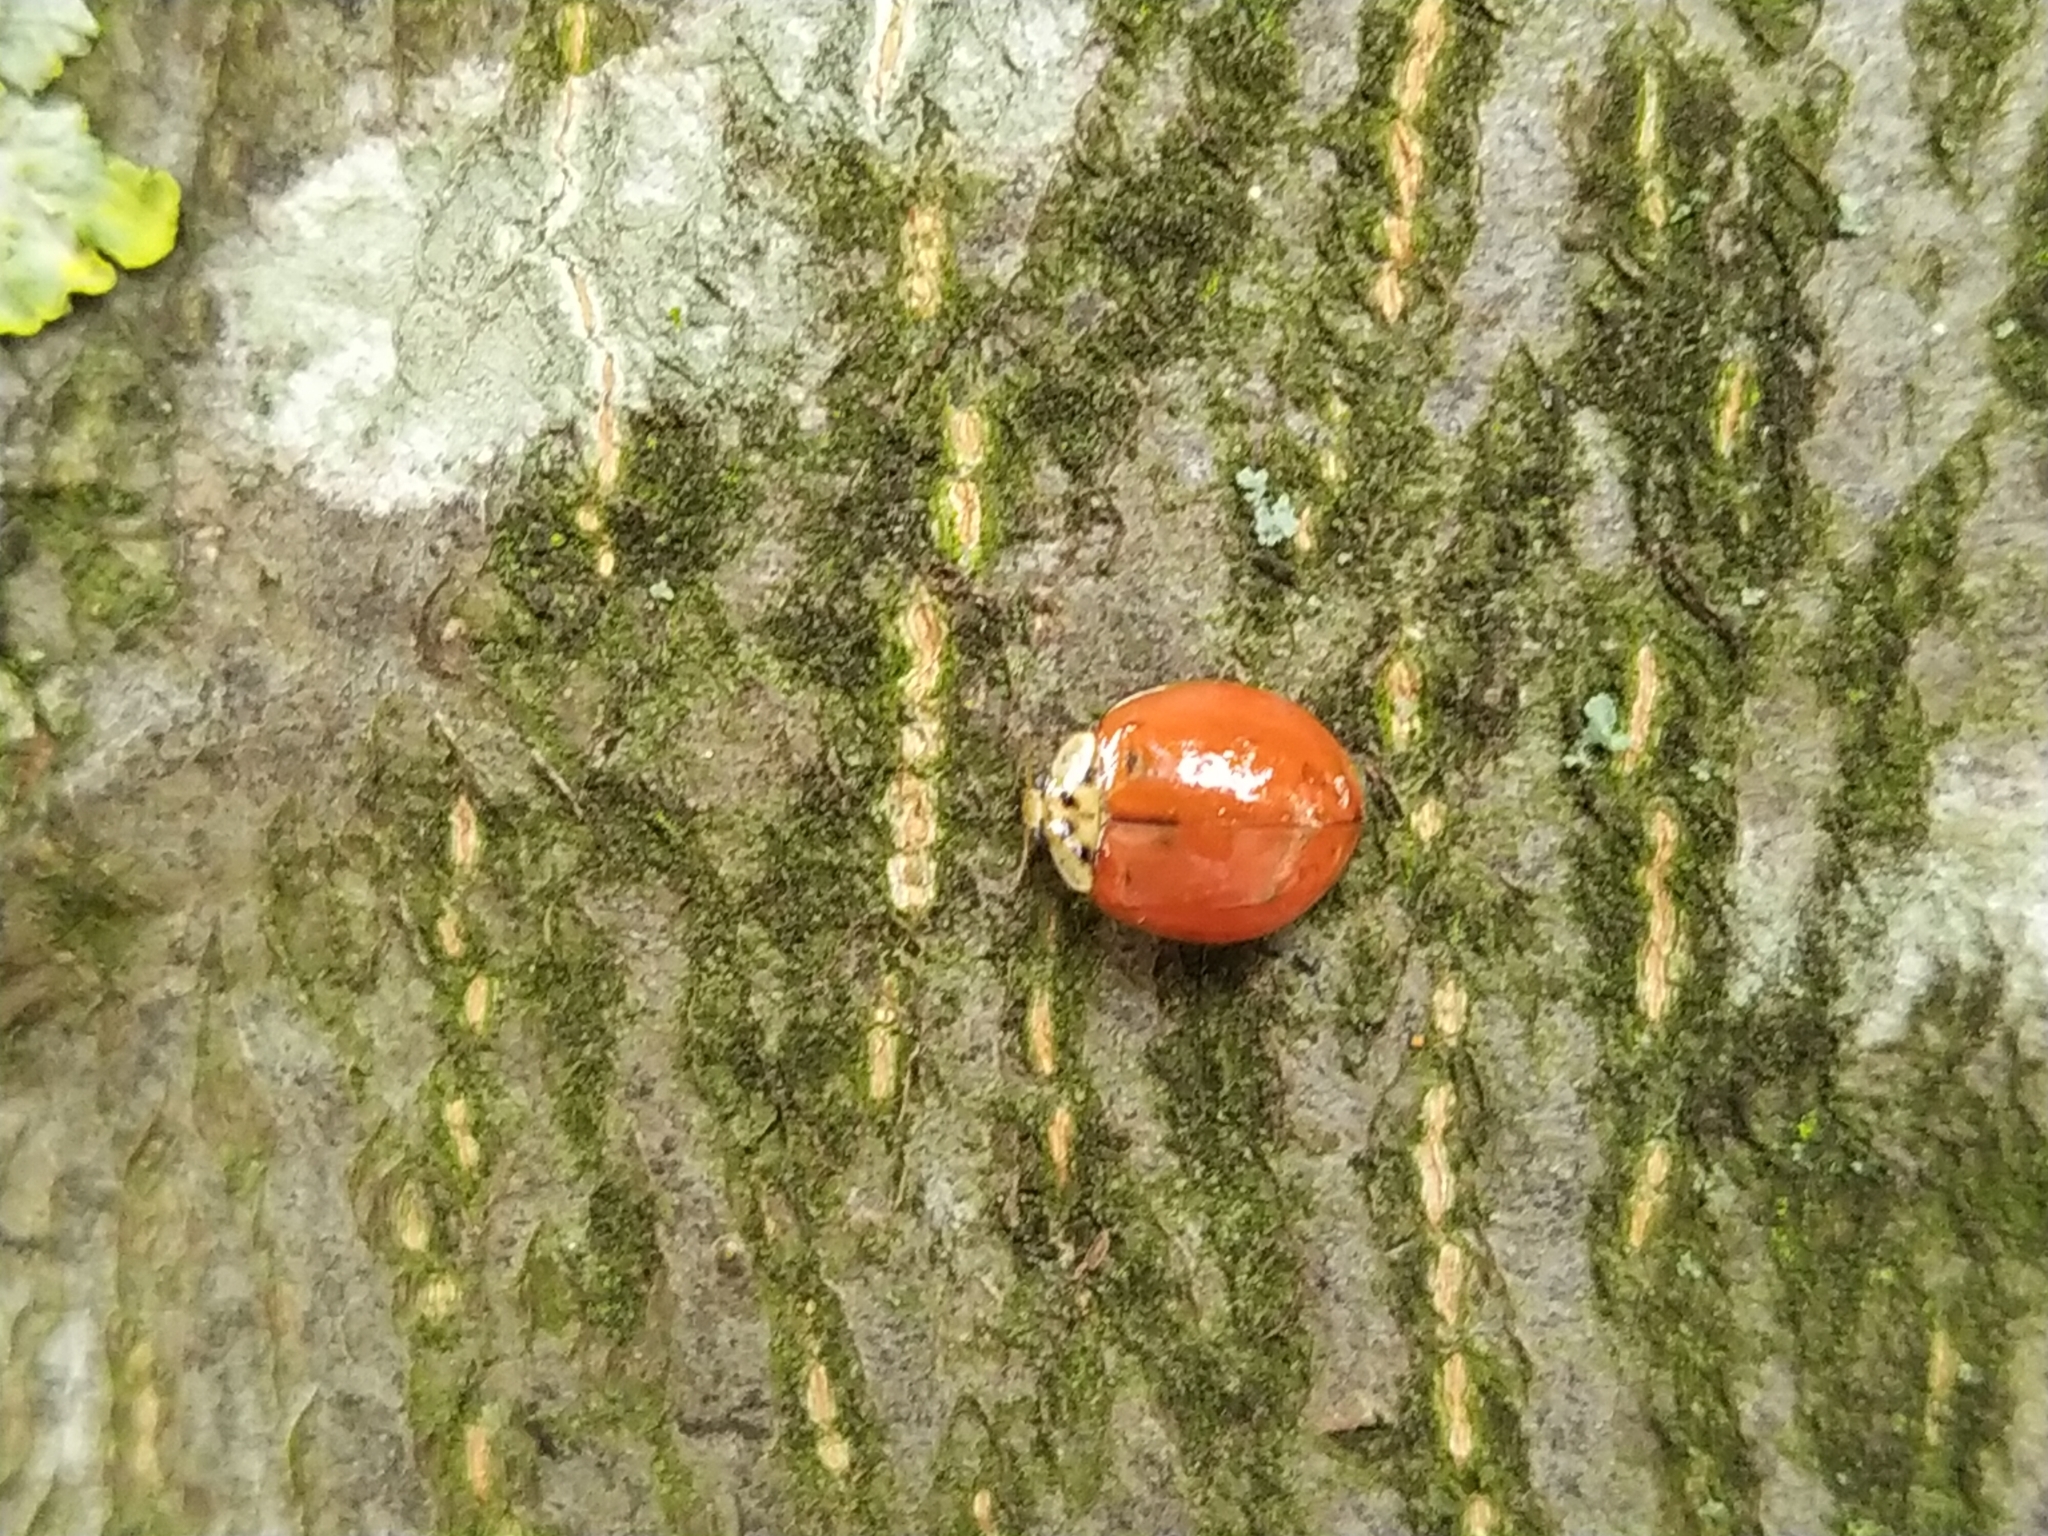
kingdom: Animalia
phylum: Arthropoda
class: Insecta
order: Coleoptera
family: Coccinellidae
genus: Harmonia
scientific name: Harmonia axyridis
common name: Harlequin ladybird
